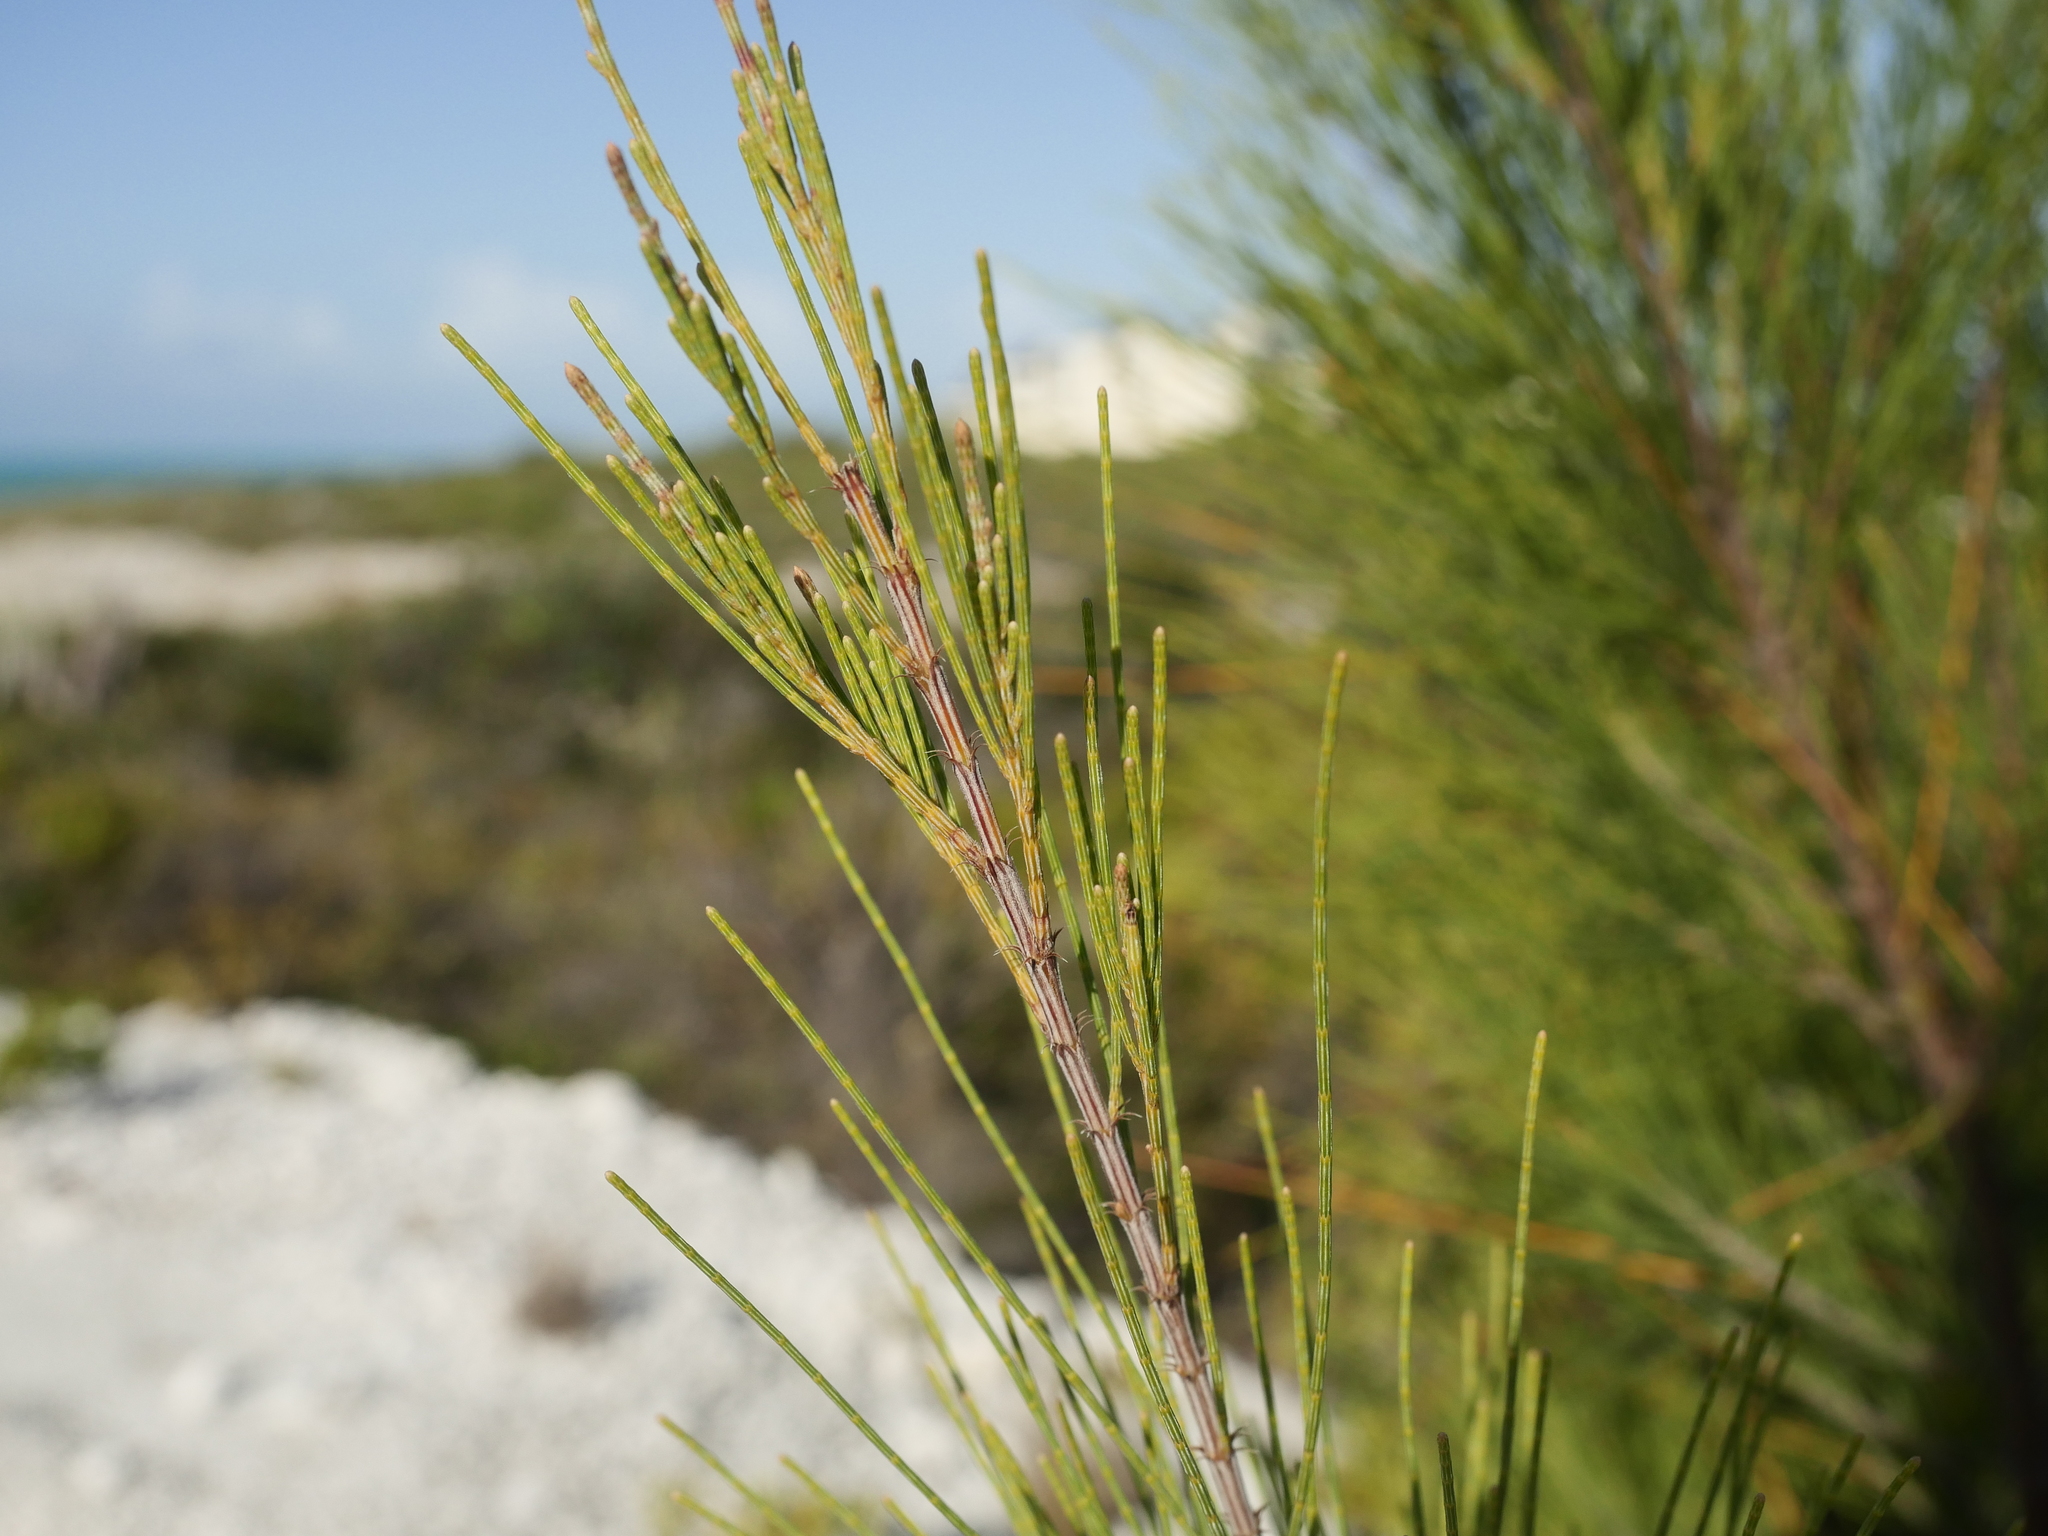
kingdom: Plantae
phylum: Tracheophyta
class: Magnoliopsida
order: Fagales
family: Casuarinaceae
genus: Casuarina
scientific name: Casuarina equisetifolia
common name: Beach sheoak
